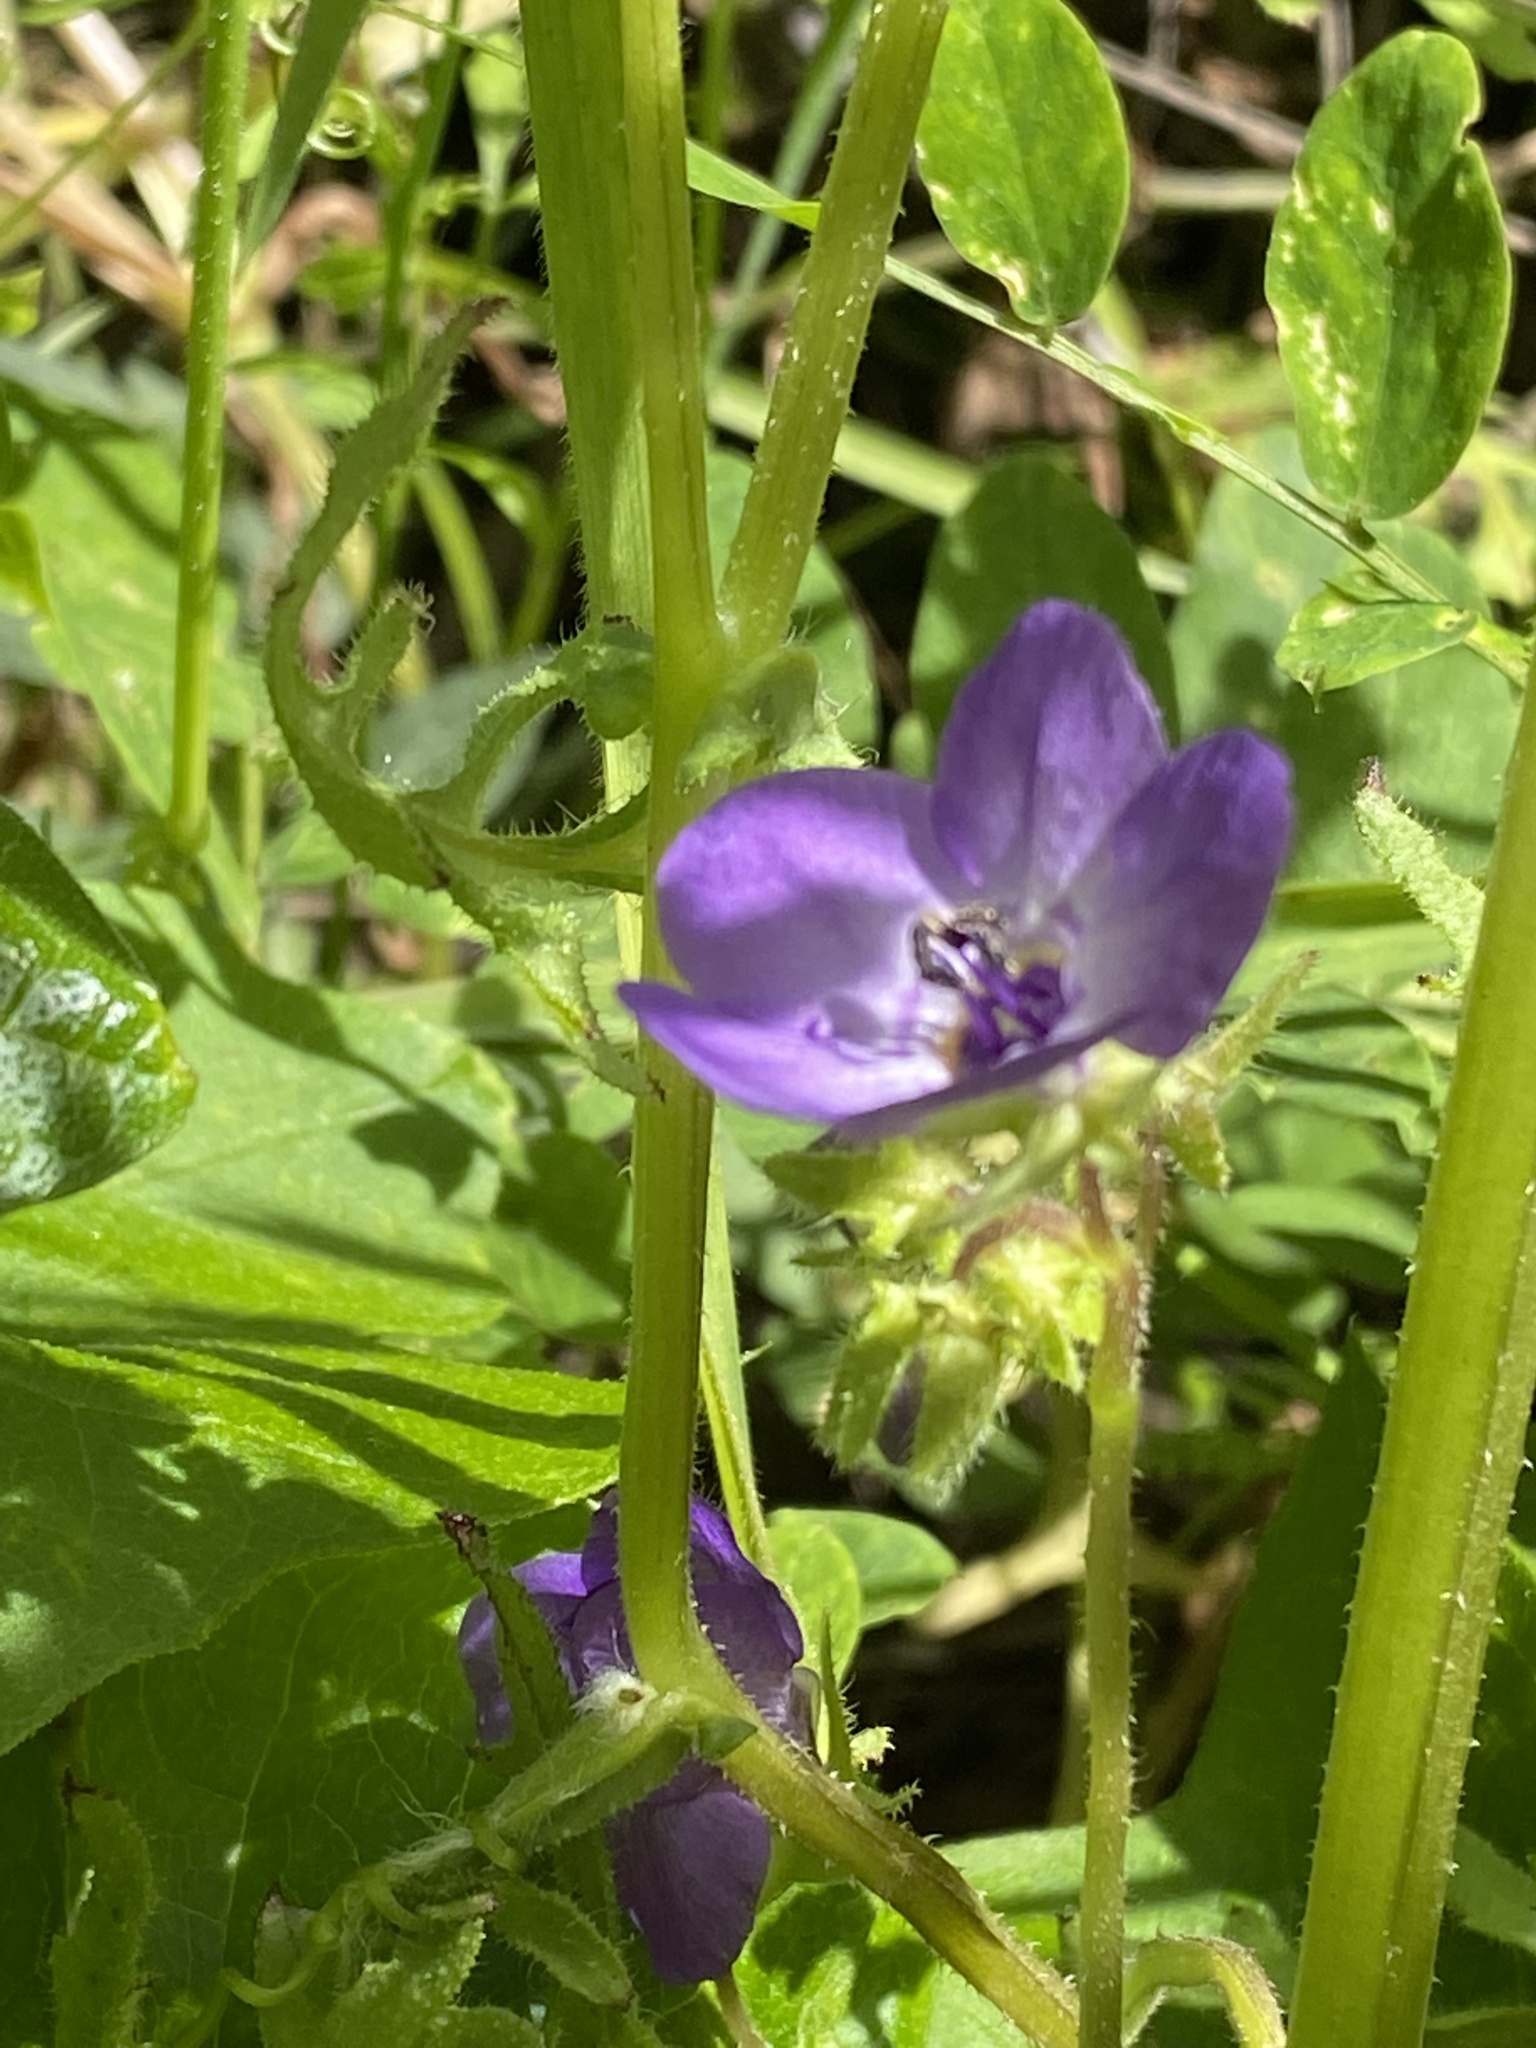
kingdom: Plantae
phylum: Tracheophyta
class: Magnoliopsida
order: Boraginales
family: Hydrophyllaceae
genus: Pholistoma
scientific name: Pholistoma auritum
